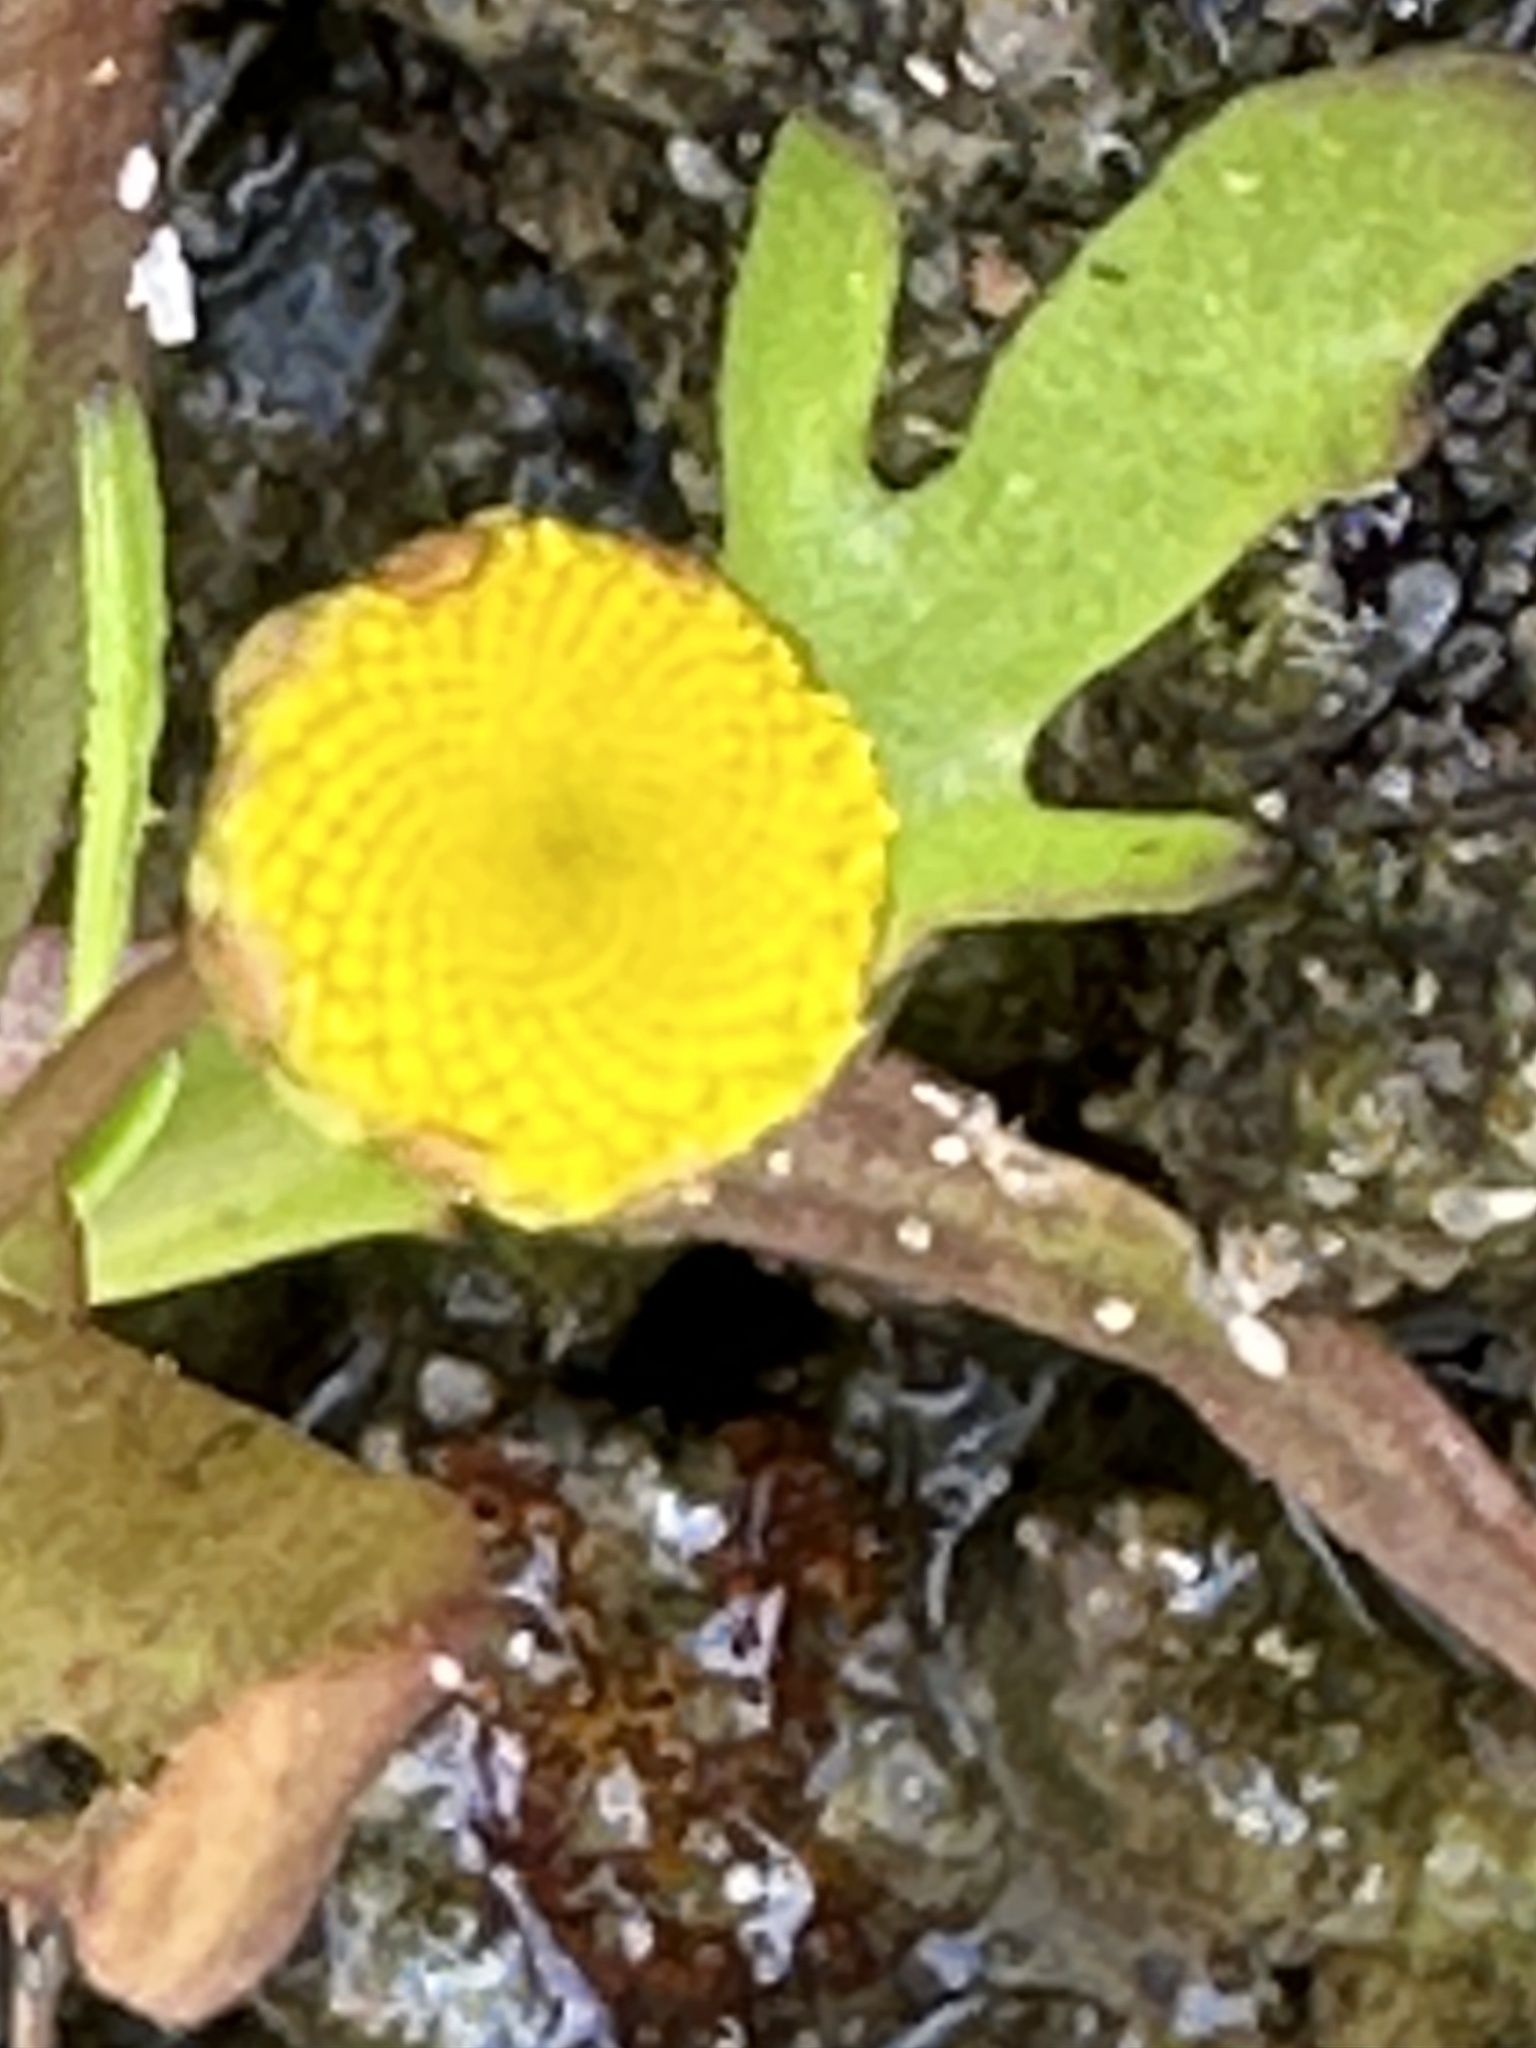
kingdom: Plantae
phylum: Tracheophyta
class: Magnoliopsida
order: Asterales
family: Asteraceae
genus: Cotula
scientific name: Cotula coronopifolia
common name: Buttonweed
